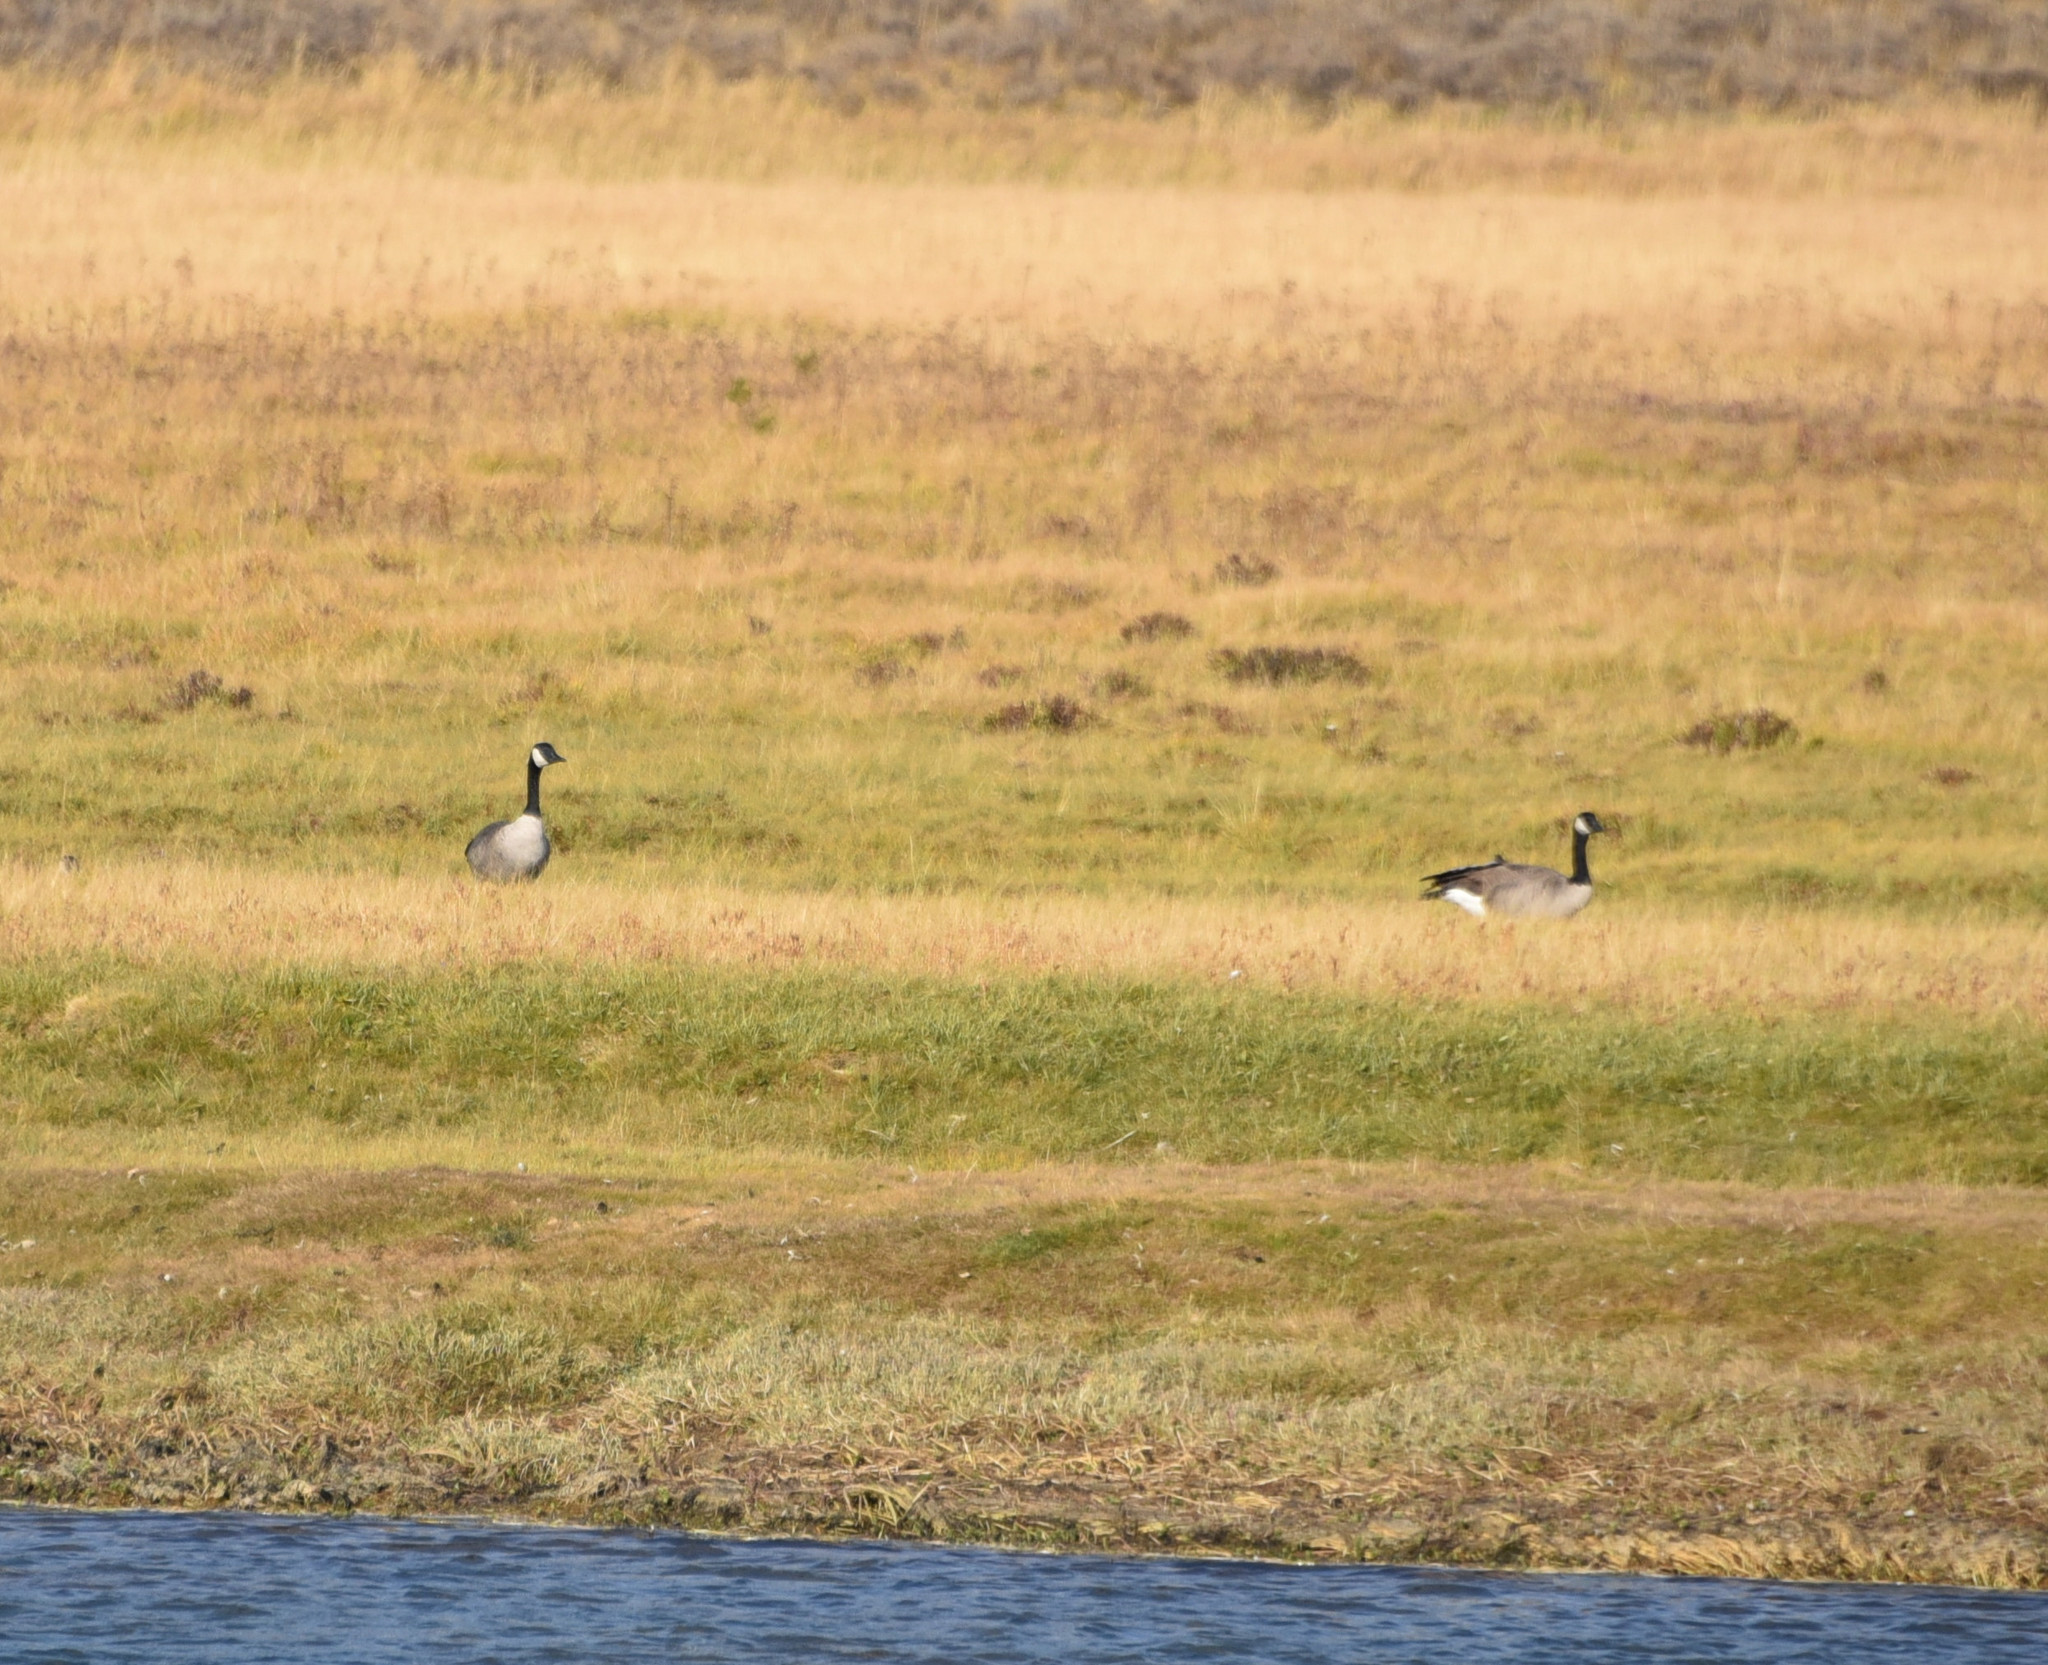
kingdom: Animalia
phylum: Chordata
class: Aves
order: Anseriformes
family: Anatidae
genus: Branta
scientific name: Branta canadensis
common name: Canada goose
